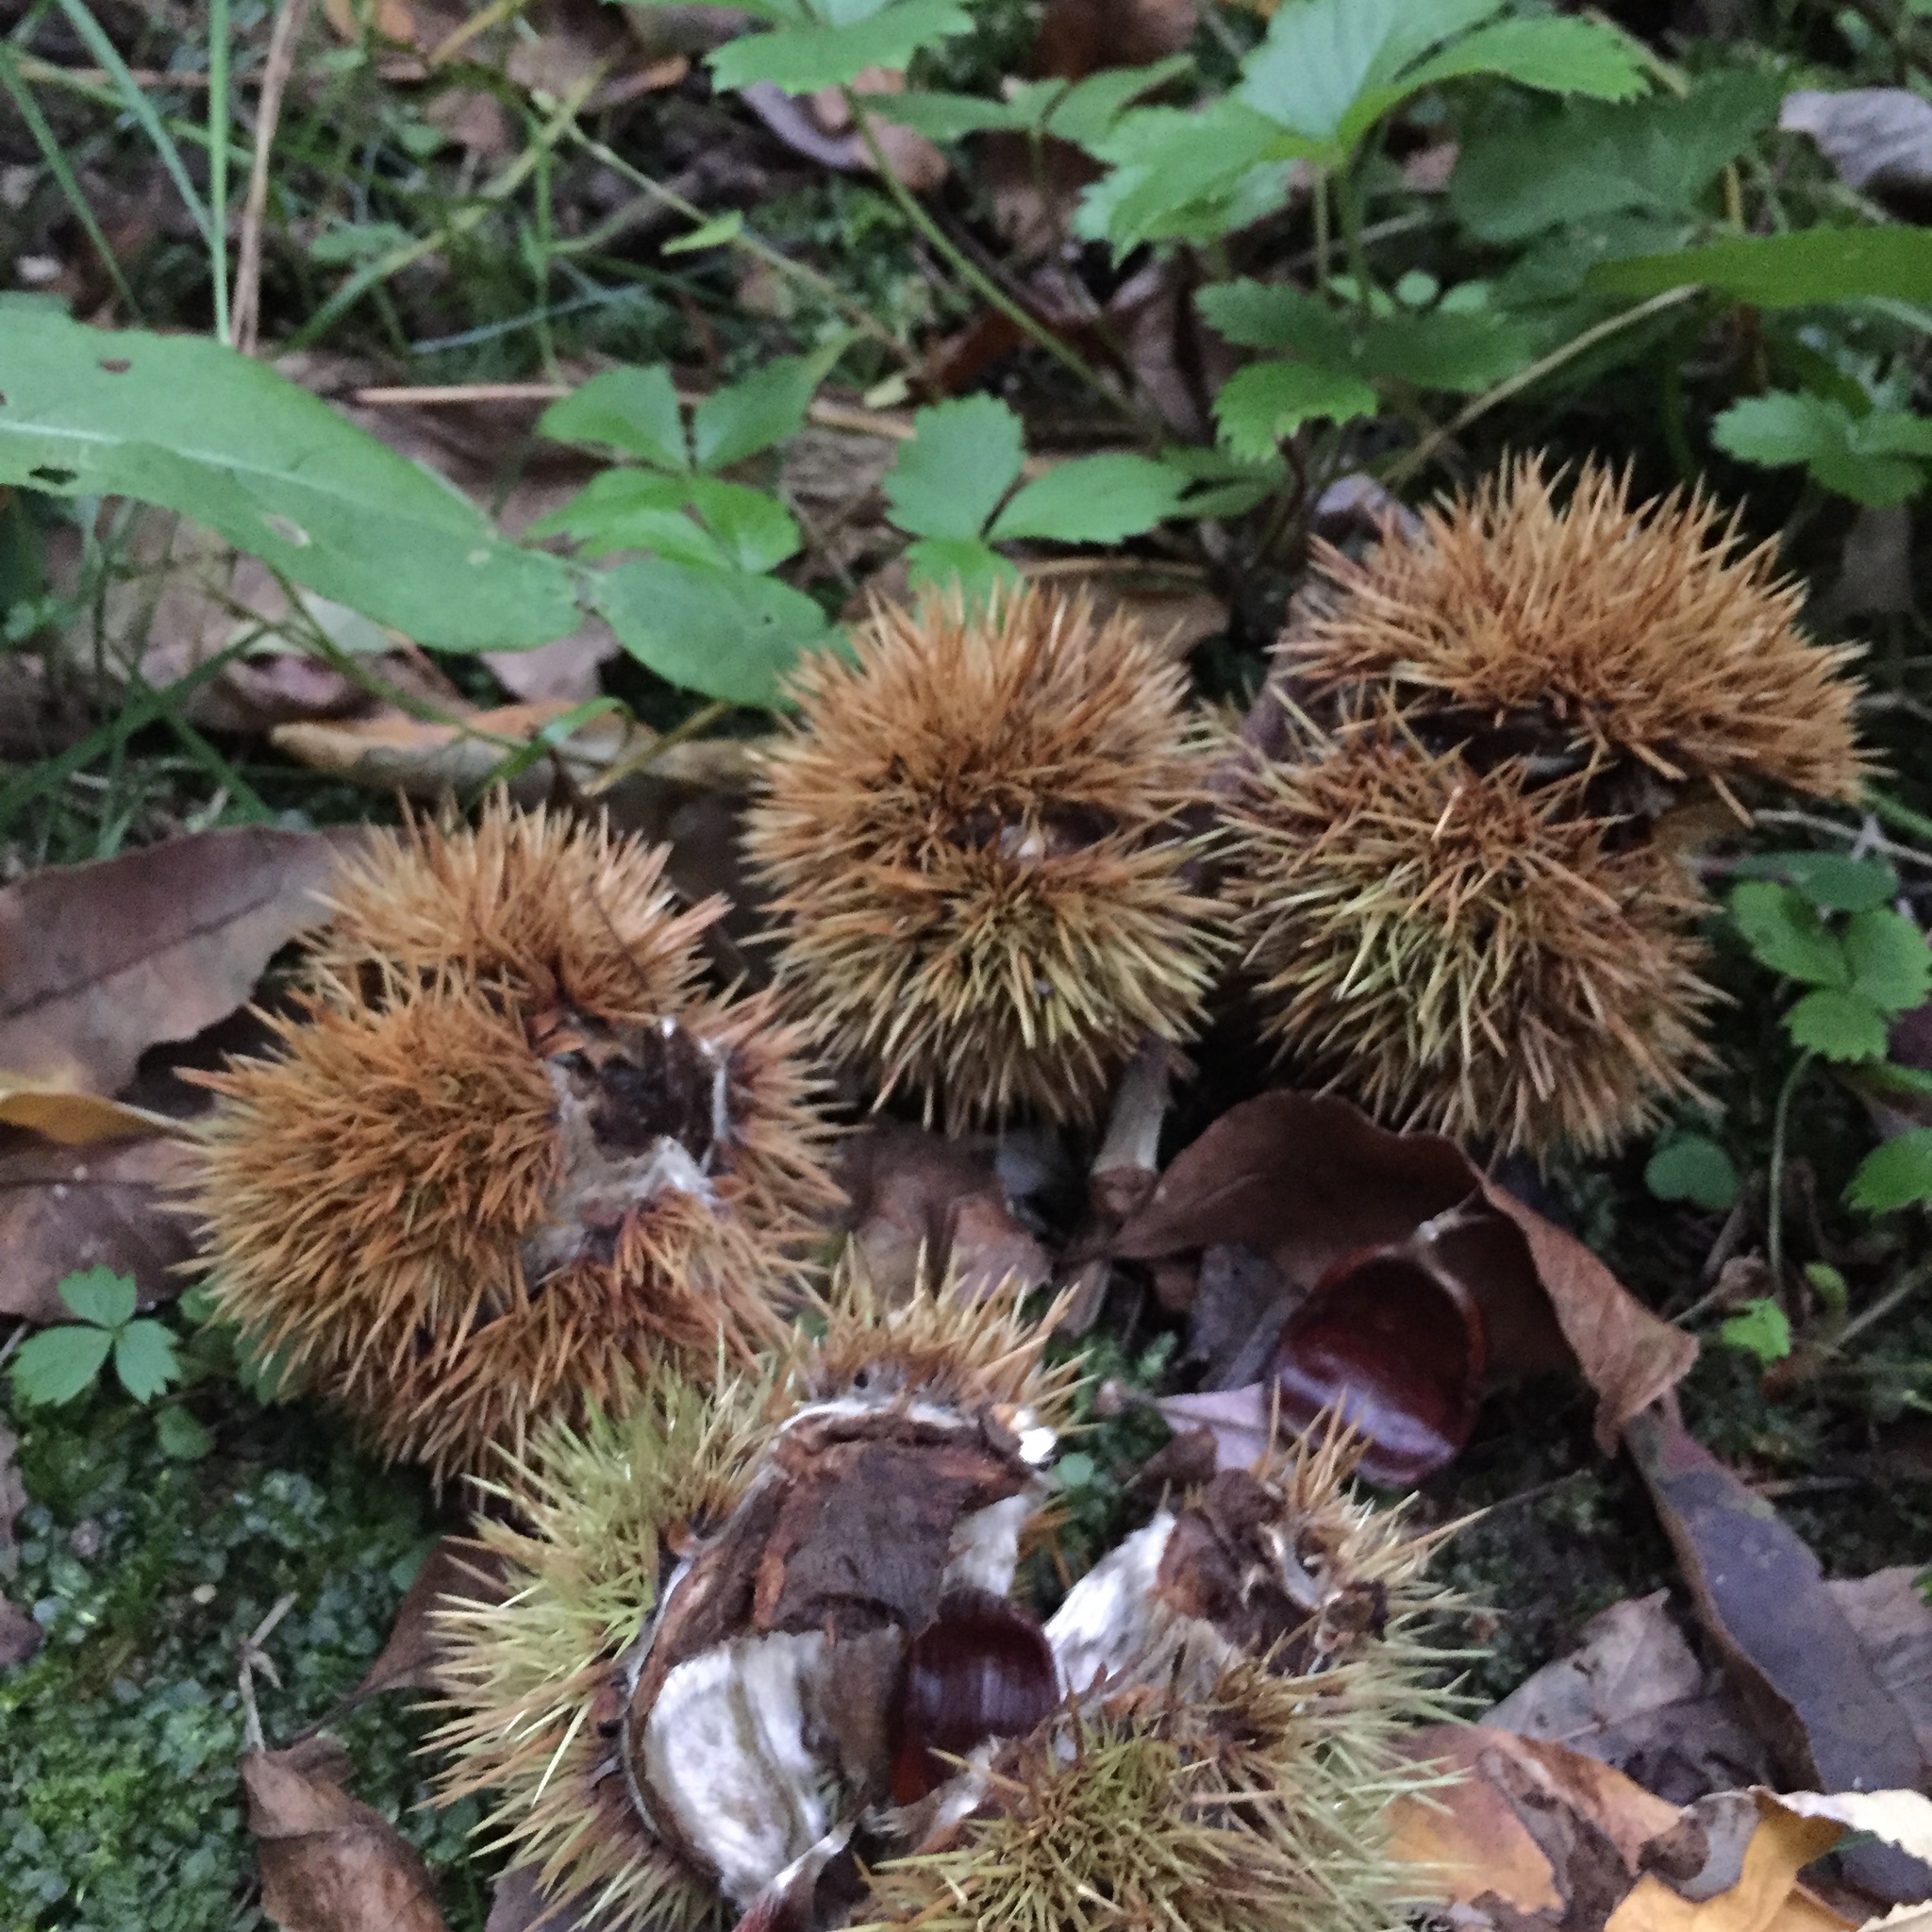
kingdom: Plantae
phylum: Tracheophyta
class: Magnoliopsida
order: Fagales
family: Fagaceae
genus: Castanea
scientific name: Castanea sativa
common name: Sweet chestnut
